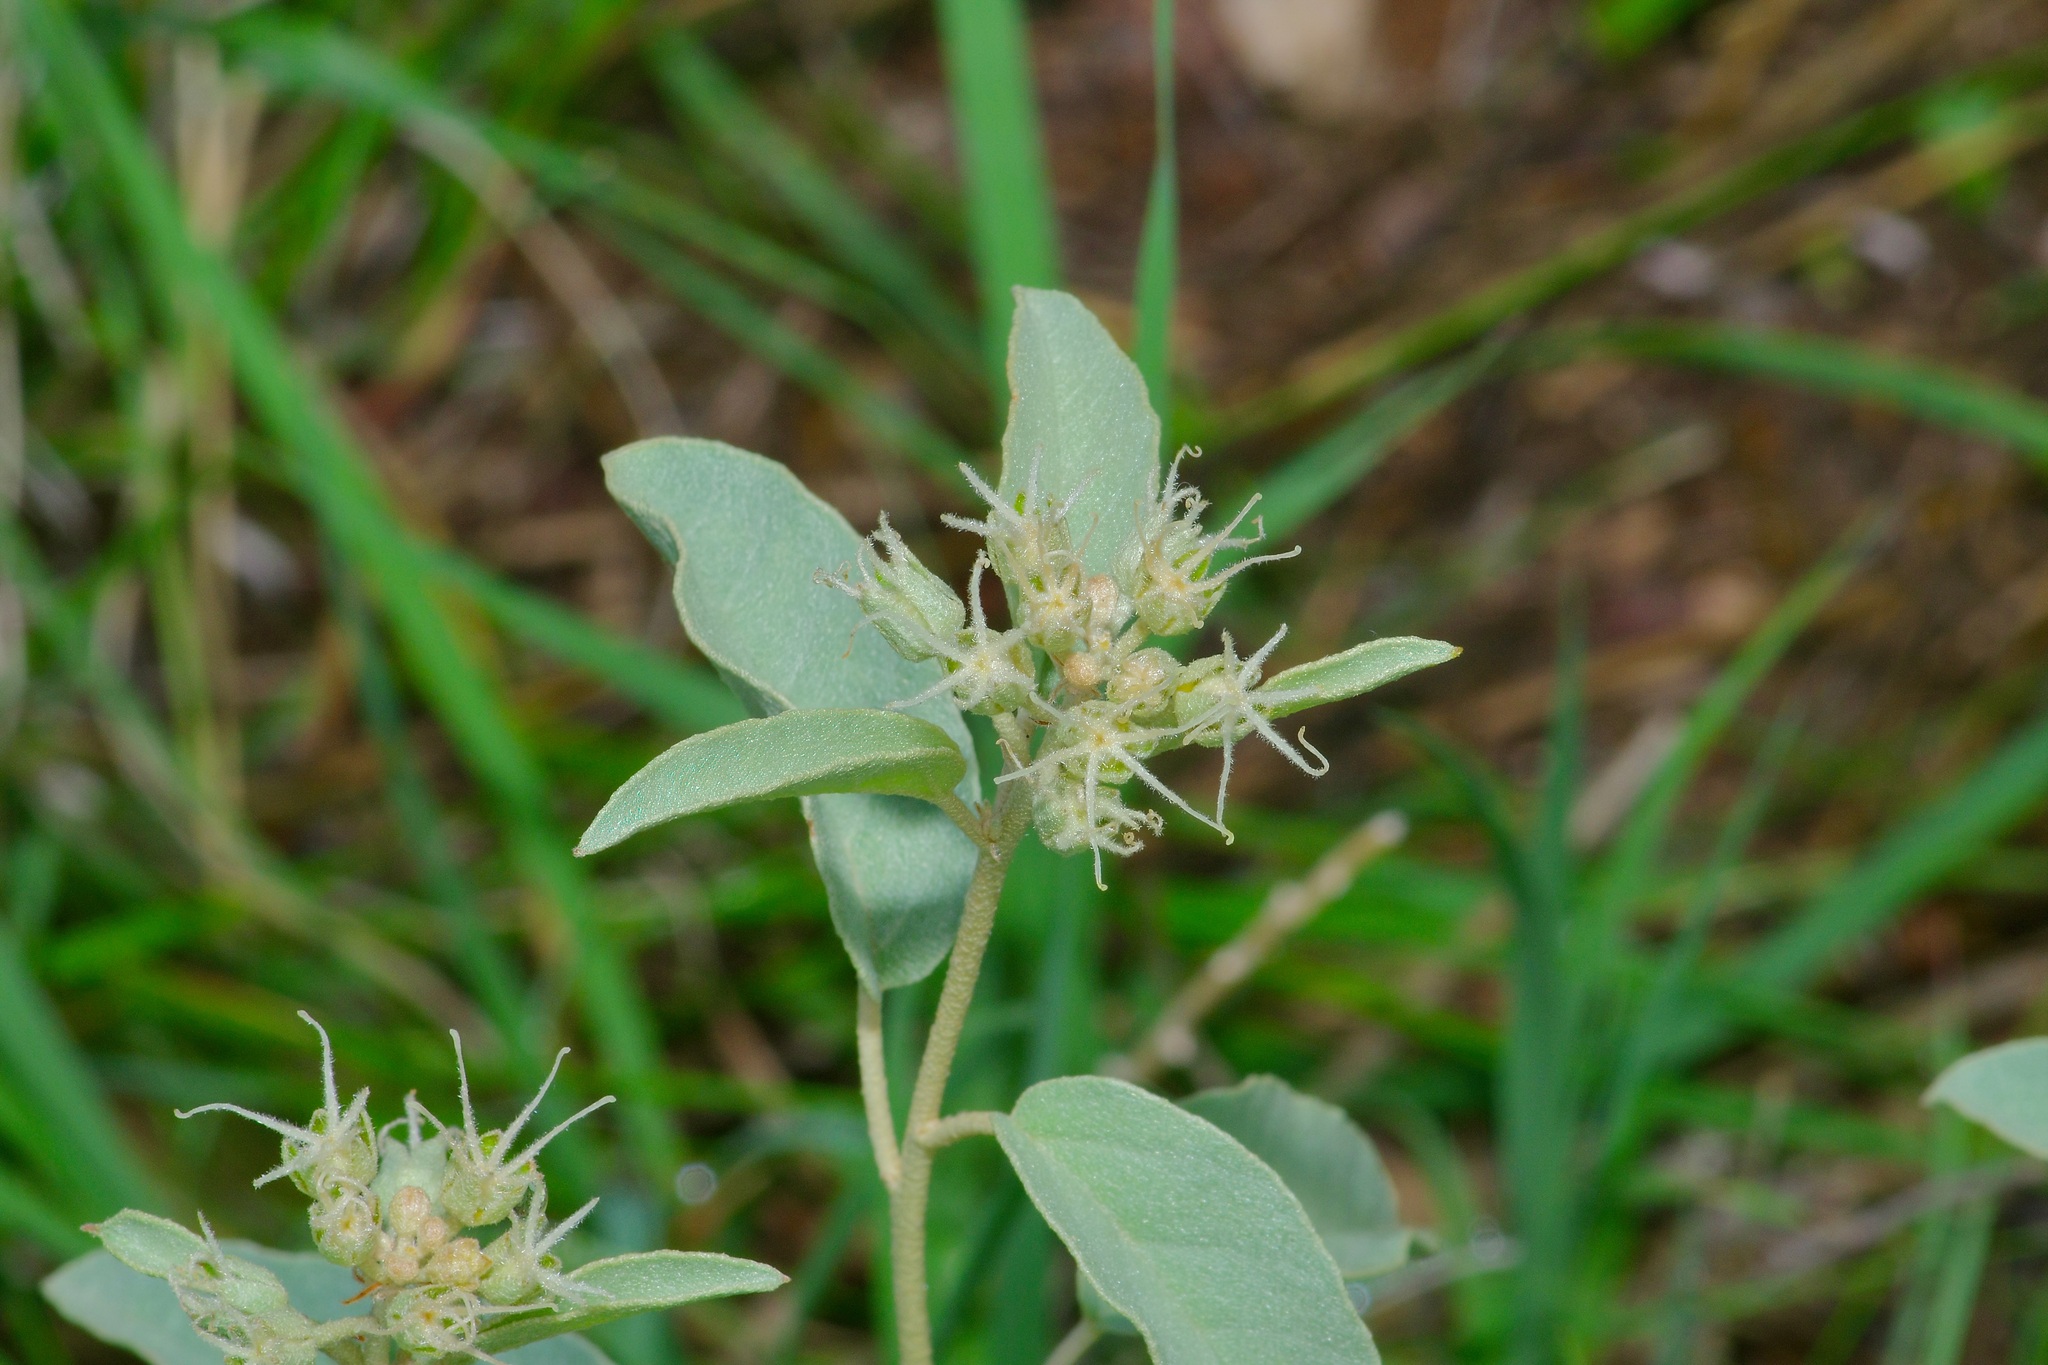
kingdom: Plantae
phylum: Tracheophyta
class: Magnoliopsida
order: Malpighiales
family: Euphorbiaceae
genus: Croton
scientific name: Croton pottsii
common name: Leatherweed
